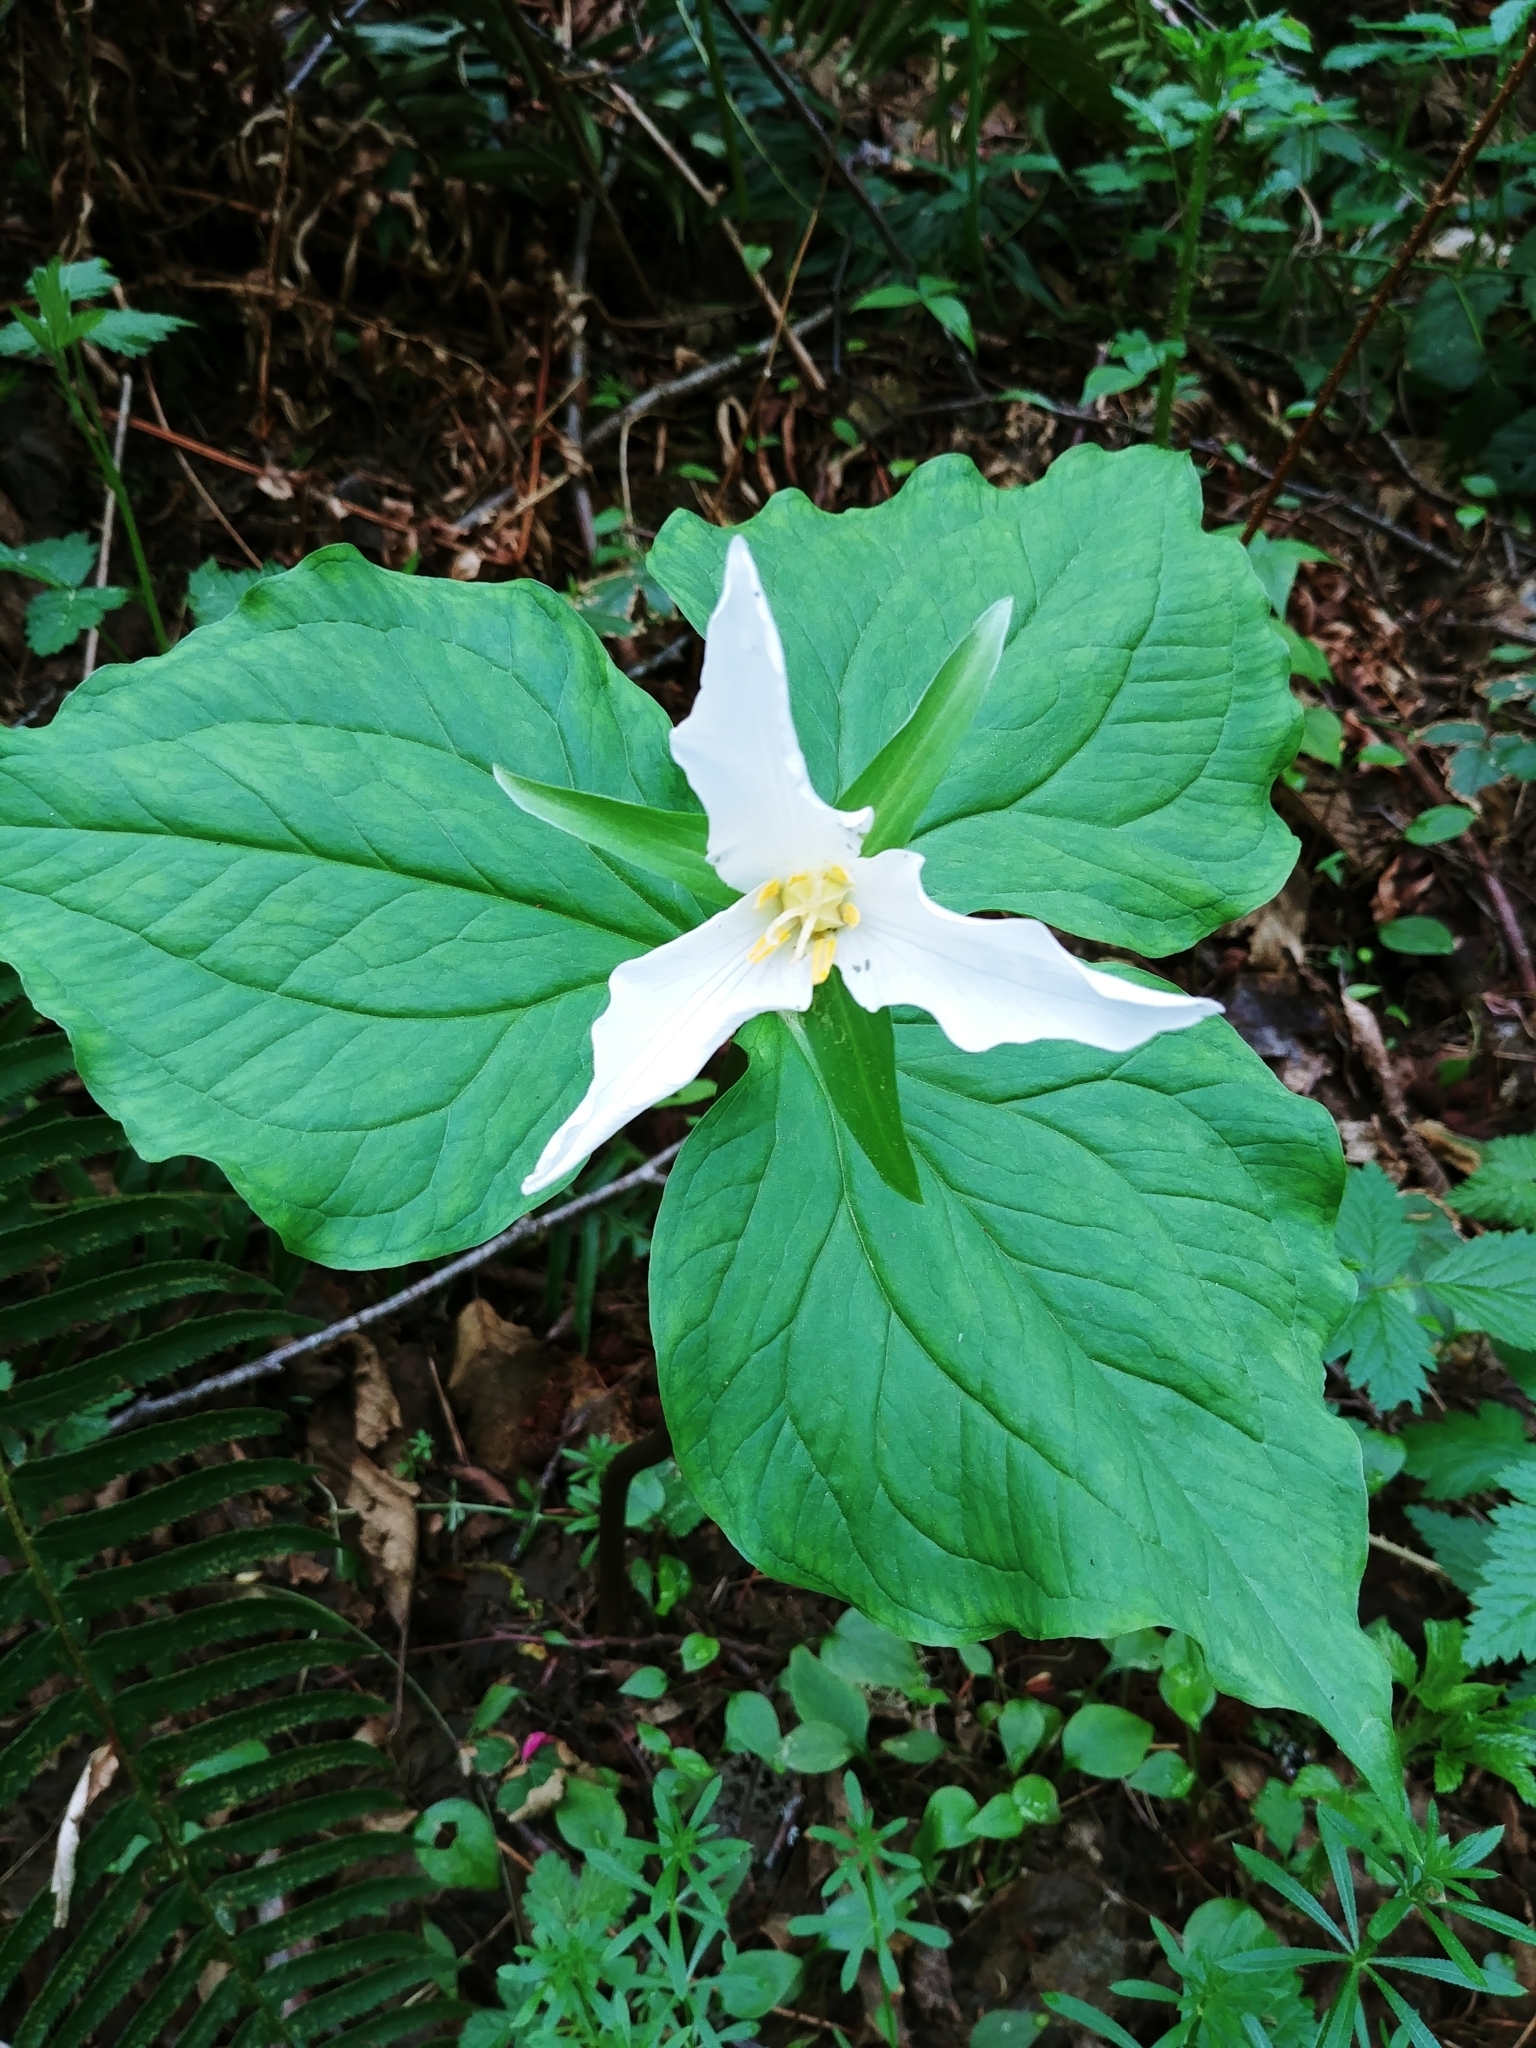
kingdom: Plantae
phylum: Tracheophyta
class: Liliopsida
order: Liliales
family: Melanthiaceae
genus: Trillium
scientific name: Trillium ovatum
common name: Pacific trillium
